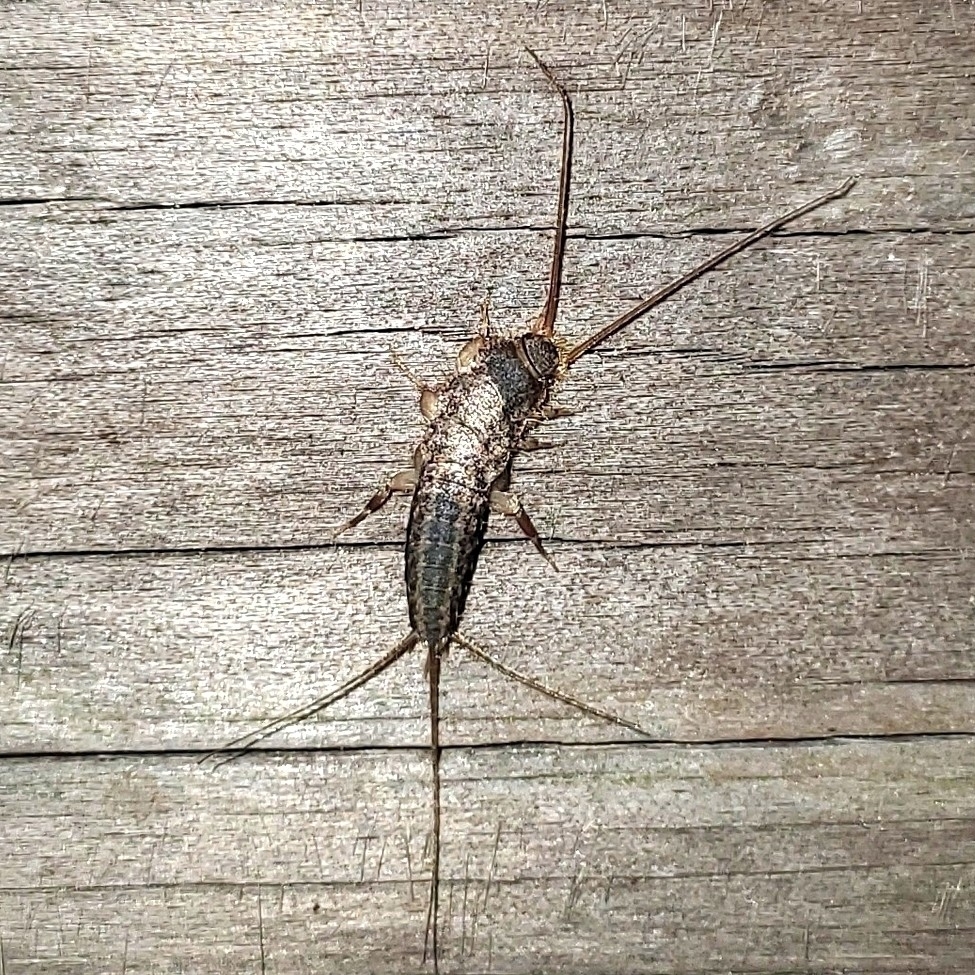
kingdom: Animalia
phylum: Arthropoda
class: Insecta
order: Zygentoma
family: Lepismatidae
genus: Ctenolepisma
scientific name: Ctenolepisma lineata
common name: Four-lined silverfish
